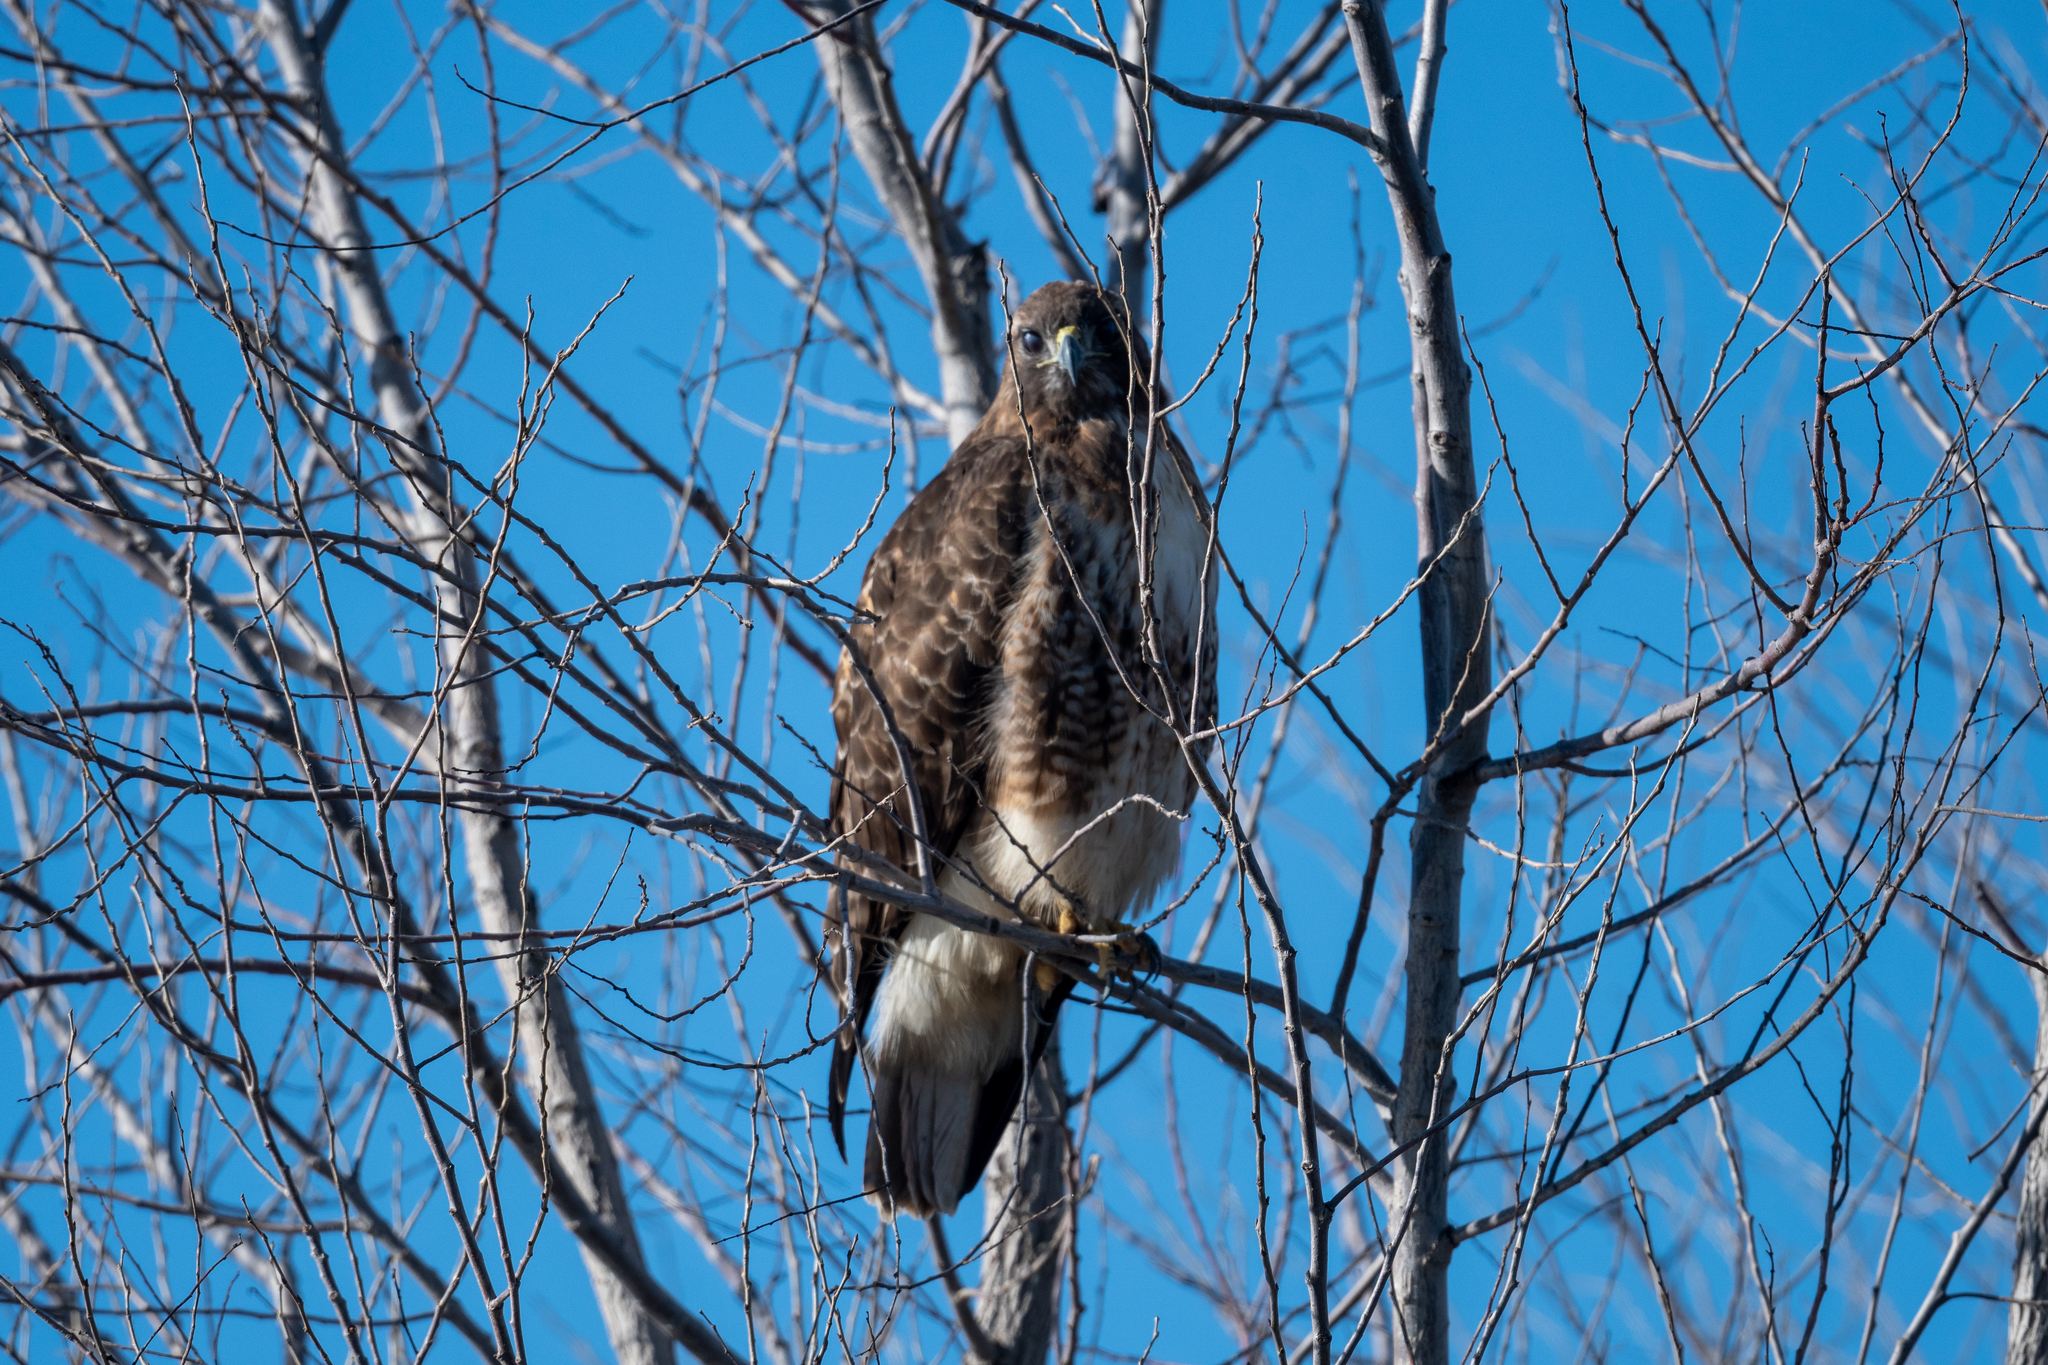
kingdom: Animalia
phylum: Chordata
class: Aves
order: Accipitriformes
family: Accipitridae
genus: Buteo
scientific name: Buteo jamaicensis
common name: Red-tailed hawk
